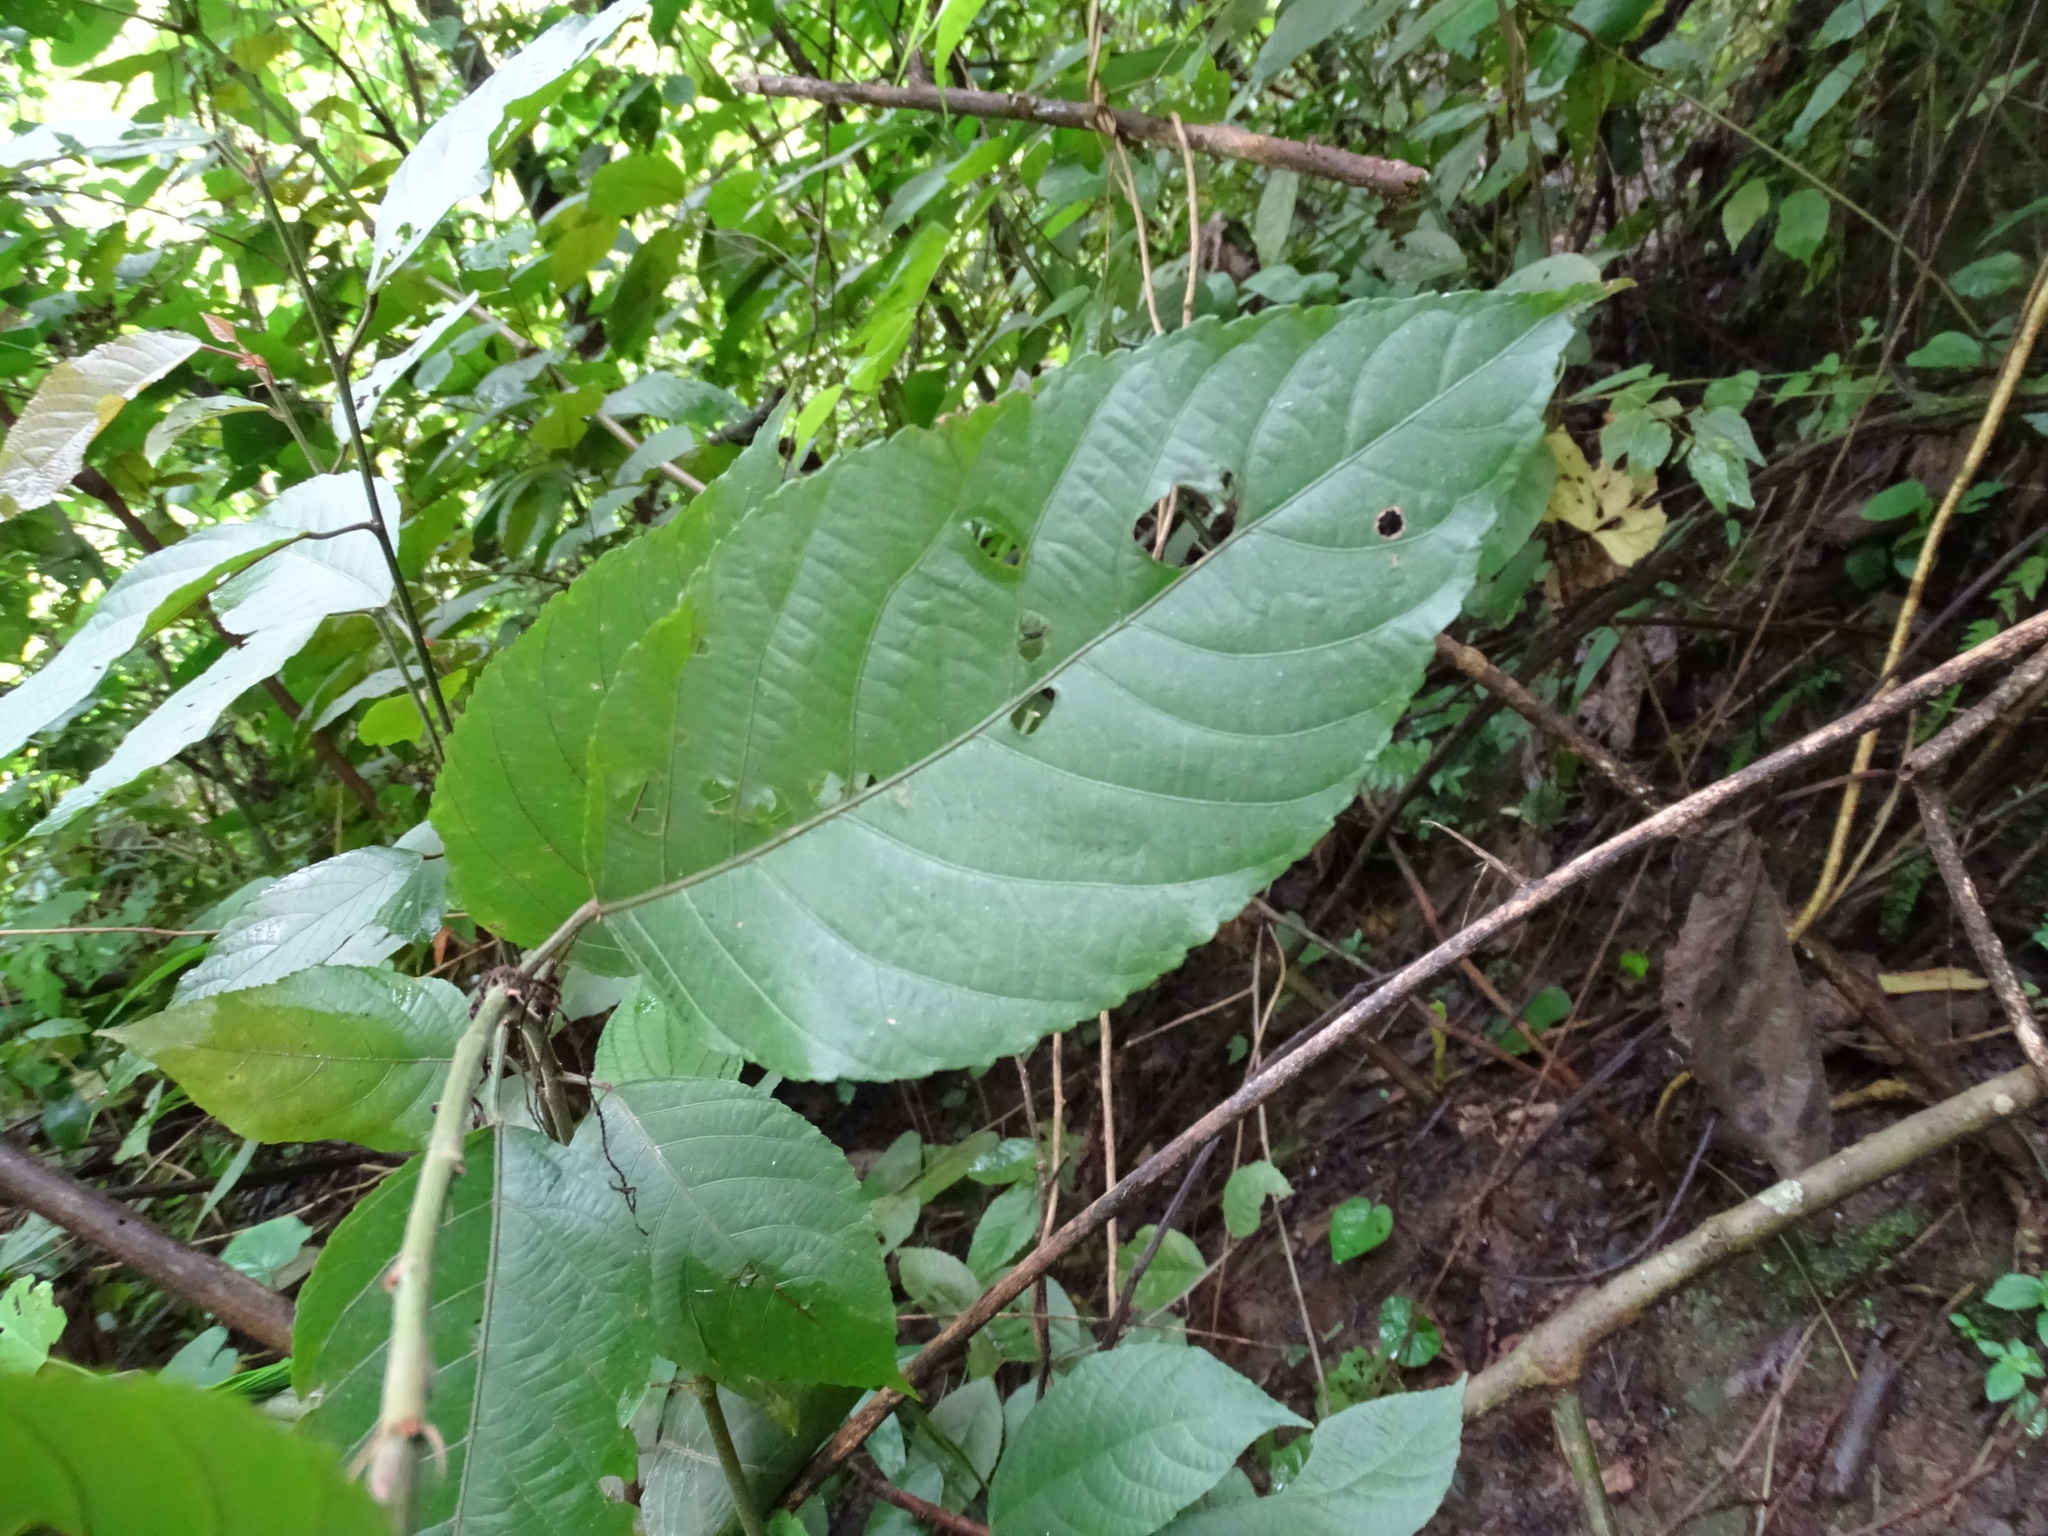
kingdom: Plantae
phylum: Tracheophyta
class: Magnoliopsida
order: Malpighiales
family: Euphorbiaceae
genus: Acalypha
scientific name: Acalypha schlechtendaliana
